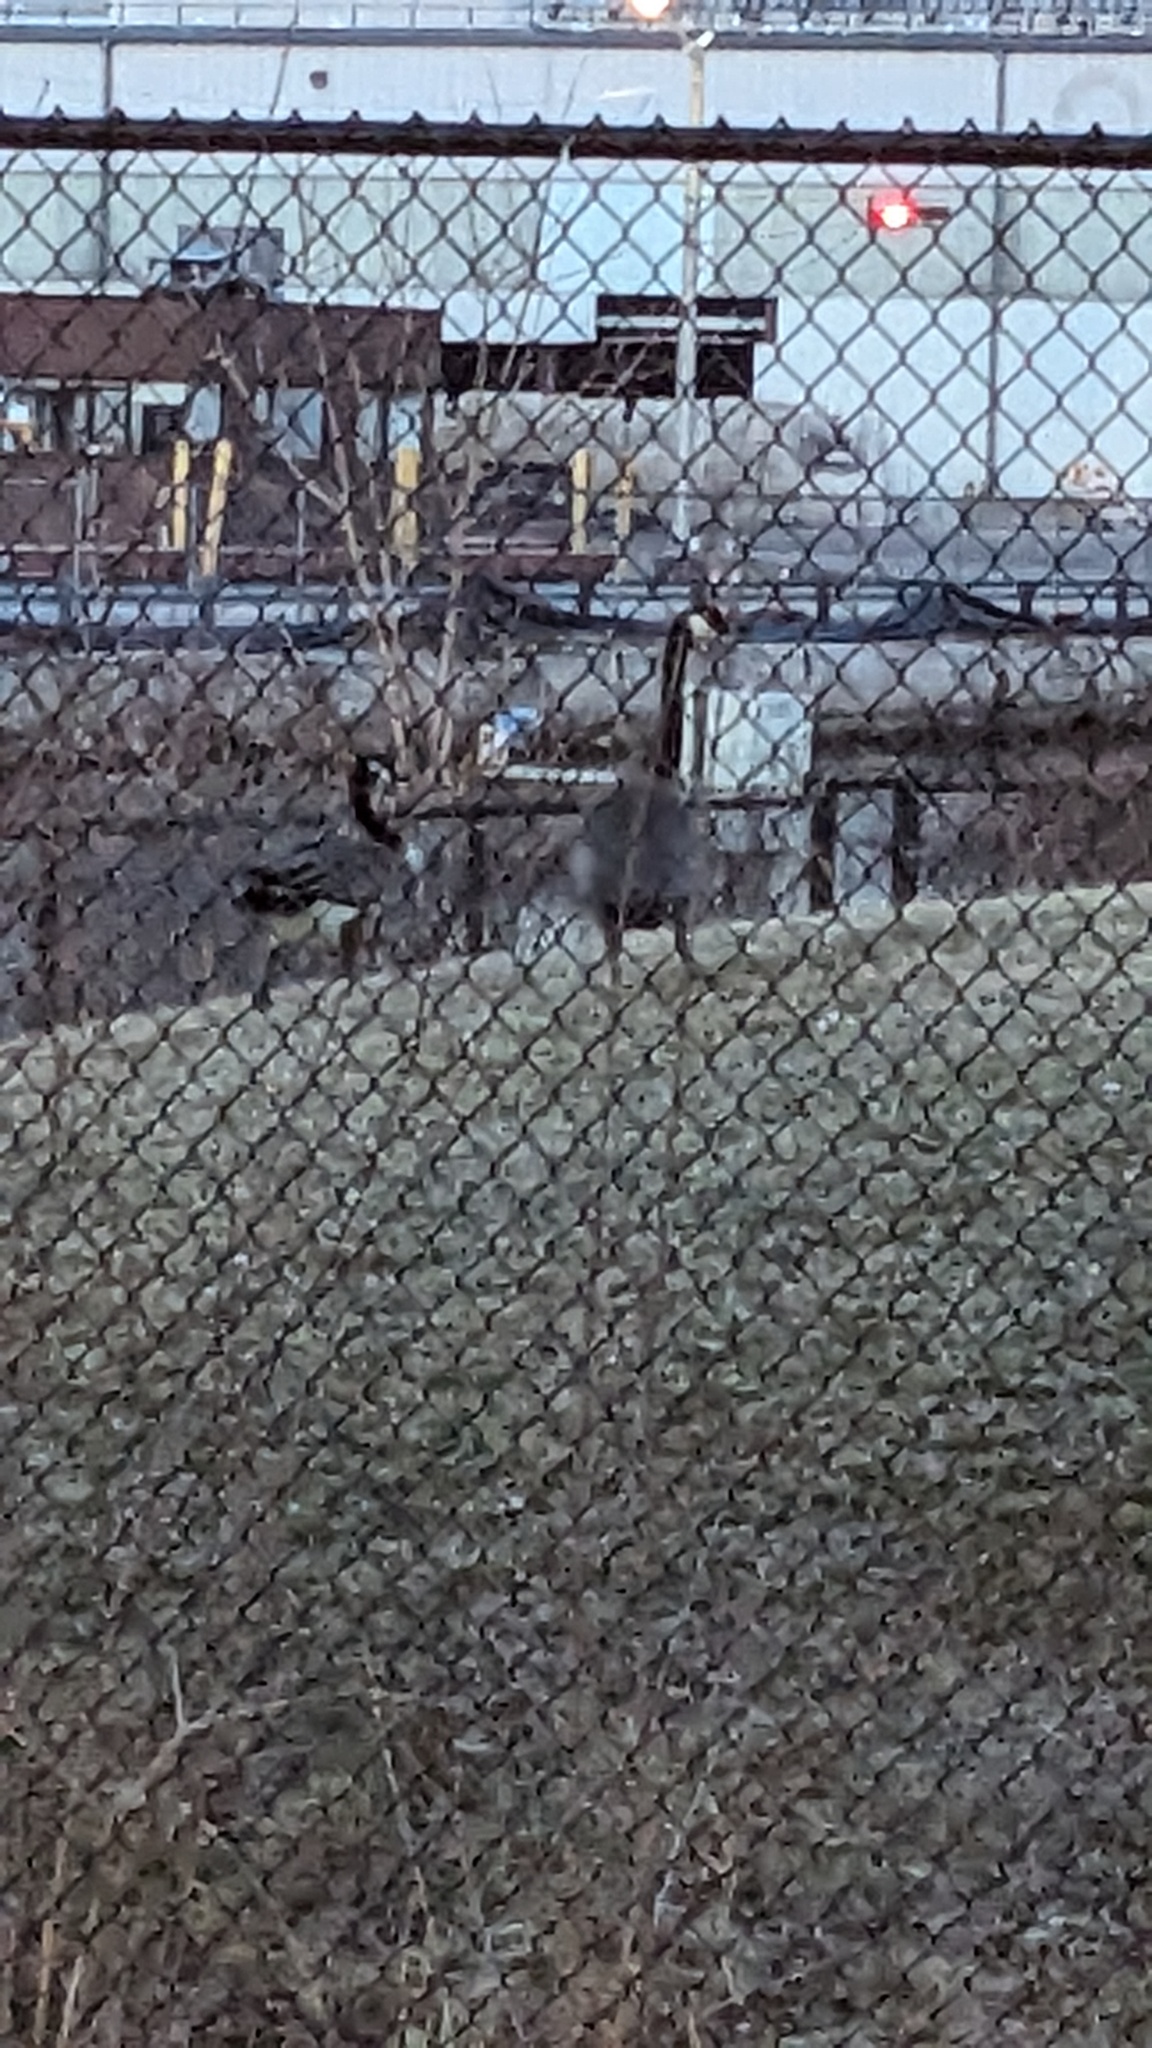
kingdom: Animalia
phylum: Chordata
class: Aves
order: Anseriformes
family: Anatidae
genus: Branta
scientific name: Branta canadensis
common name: Canada goose
